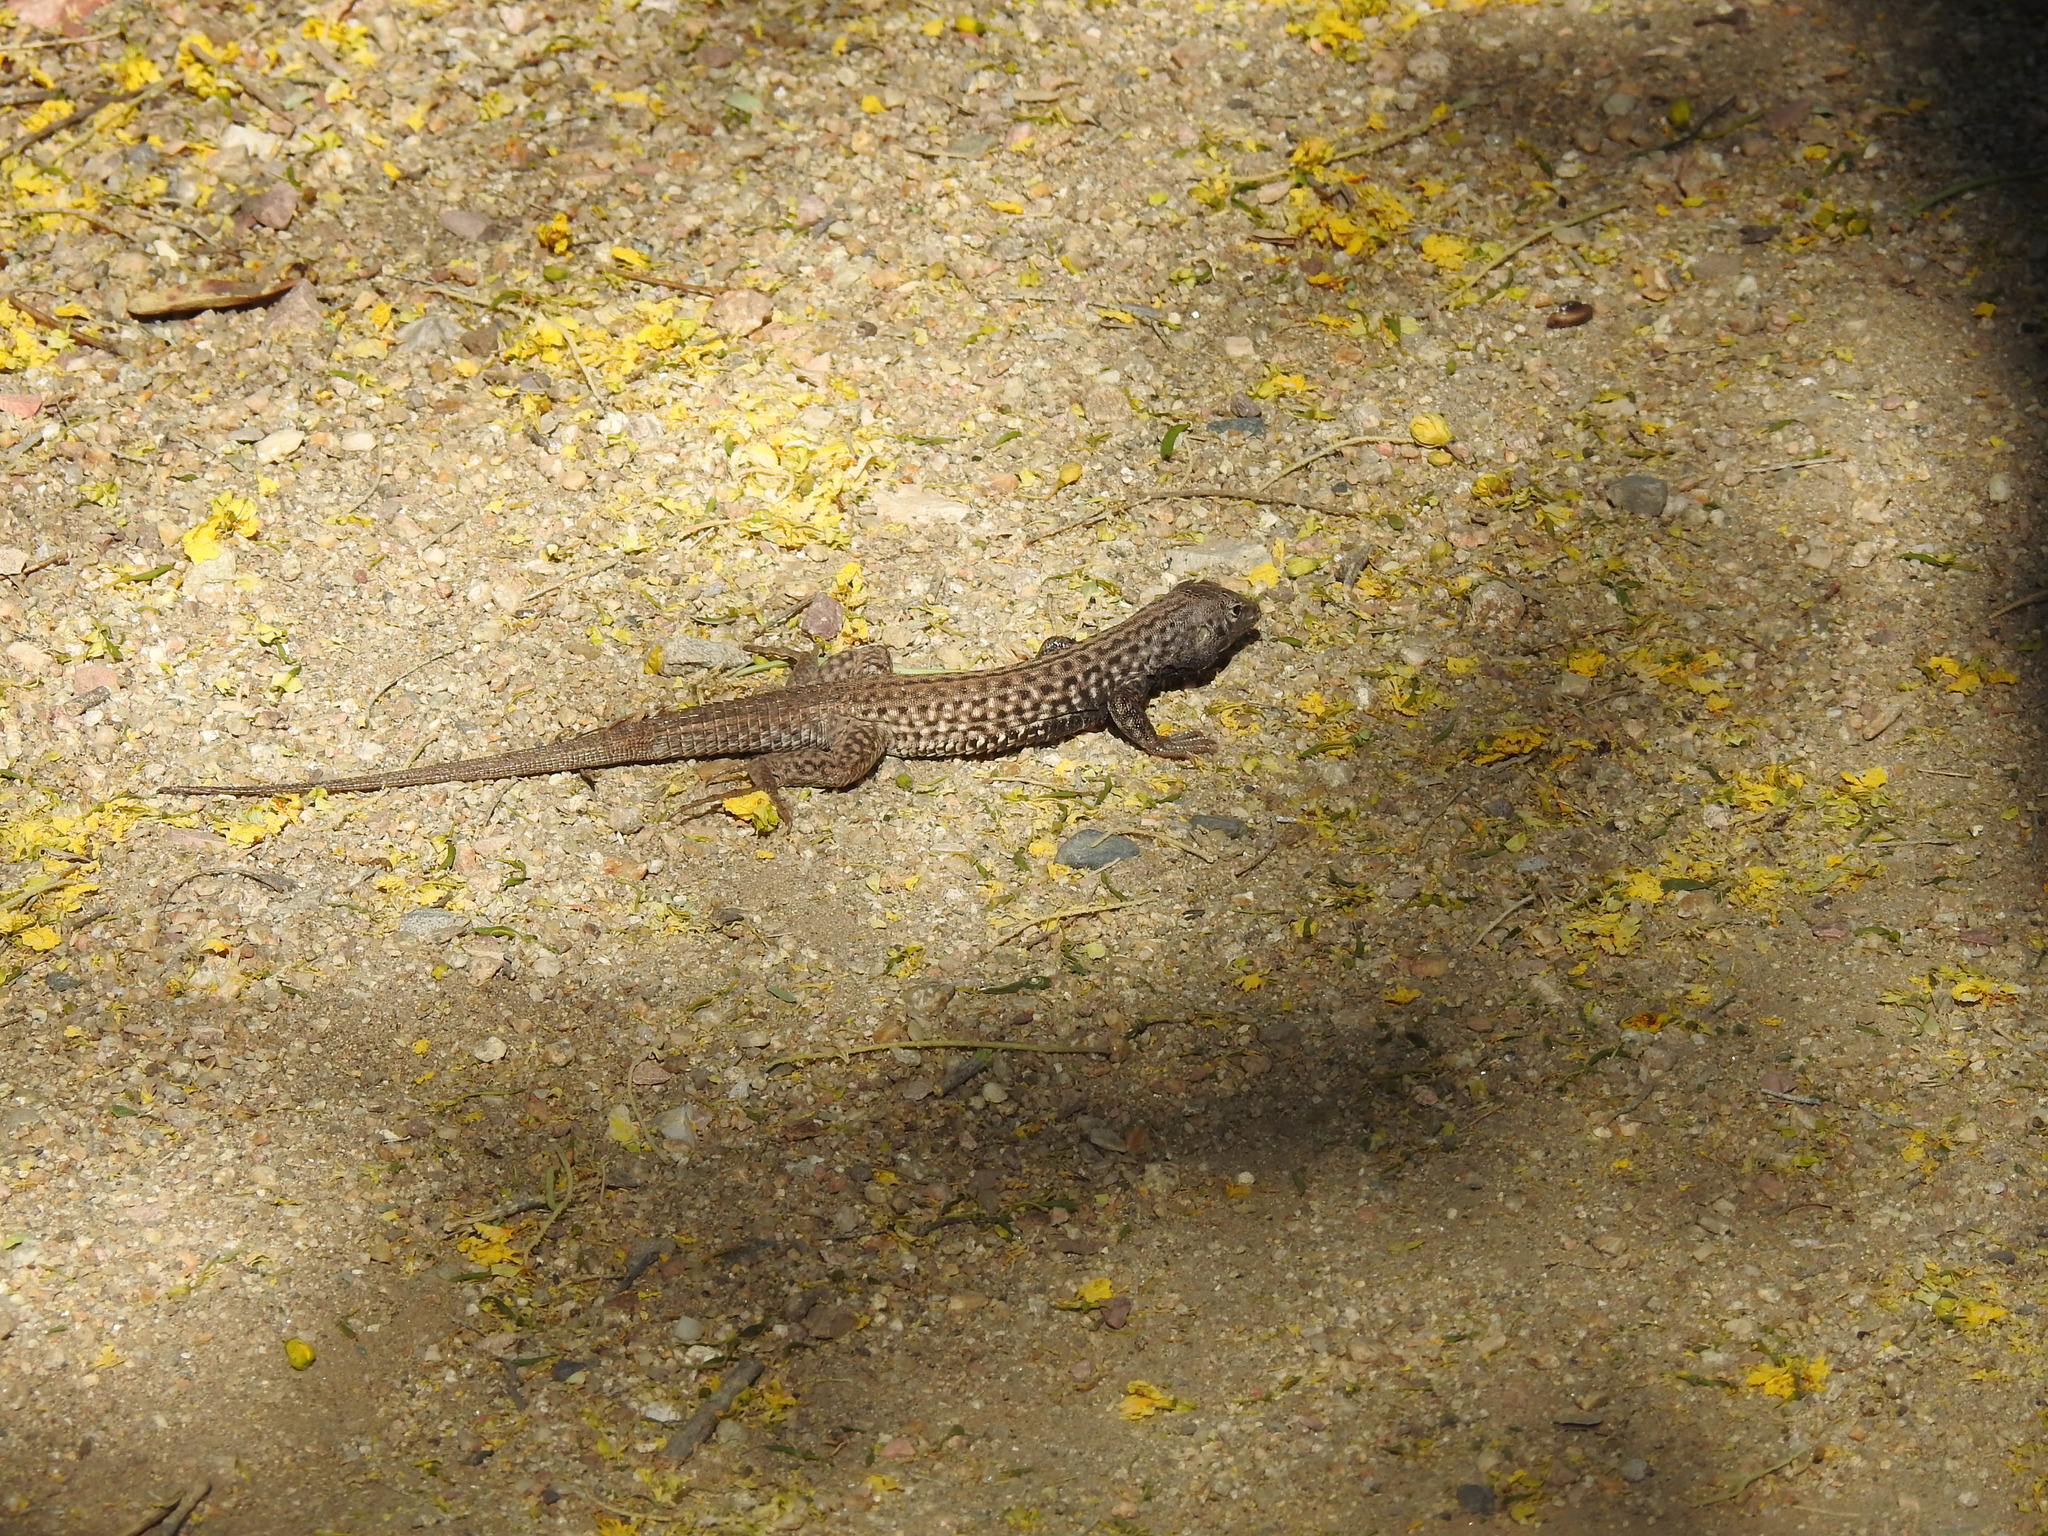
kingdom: Animalia
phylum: Chordata
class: Squamata
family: Teiidae
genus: Aspidoscelis
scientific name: Aspidoscelis tigris
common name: Tiger whiptail
